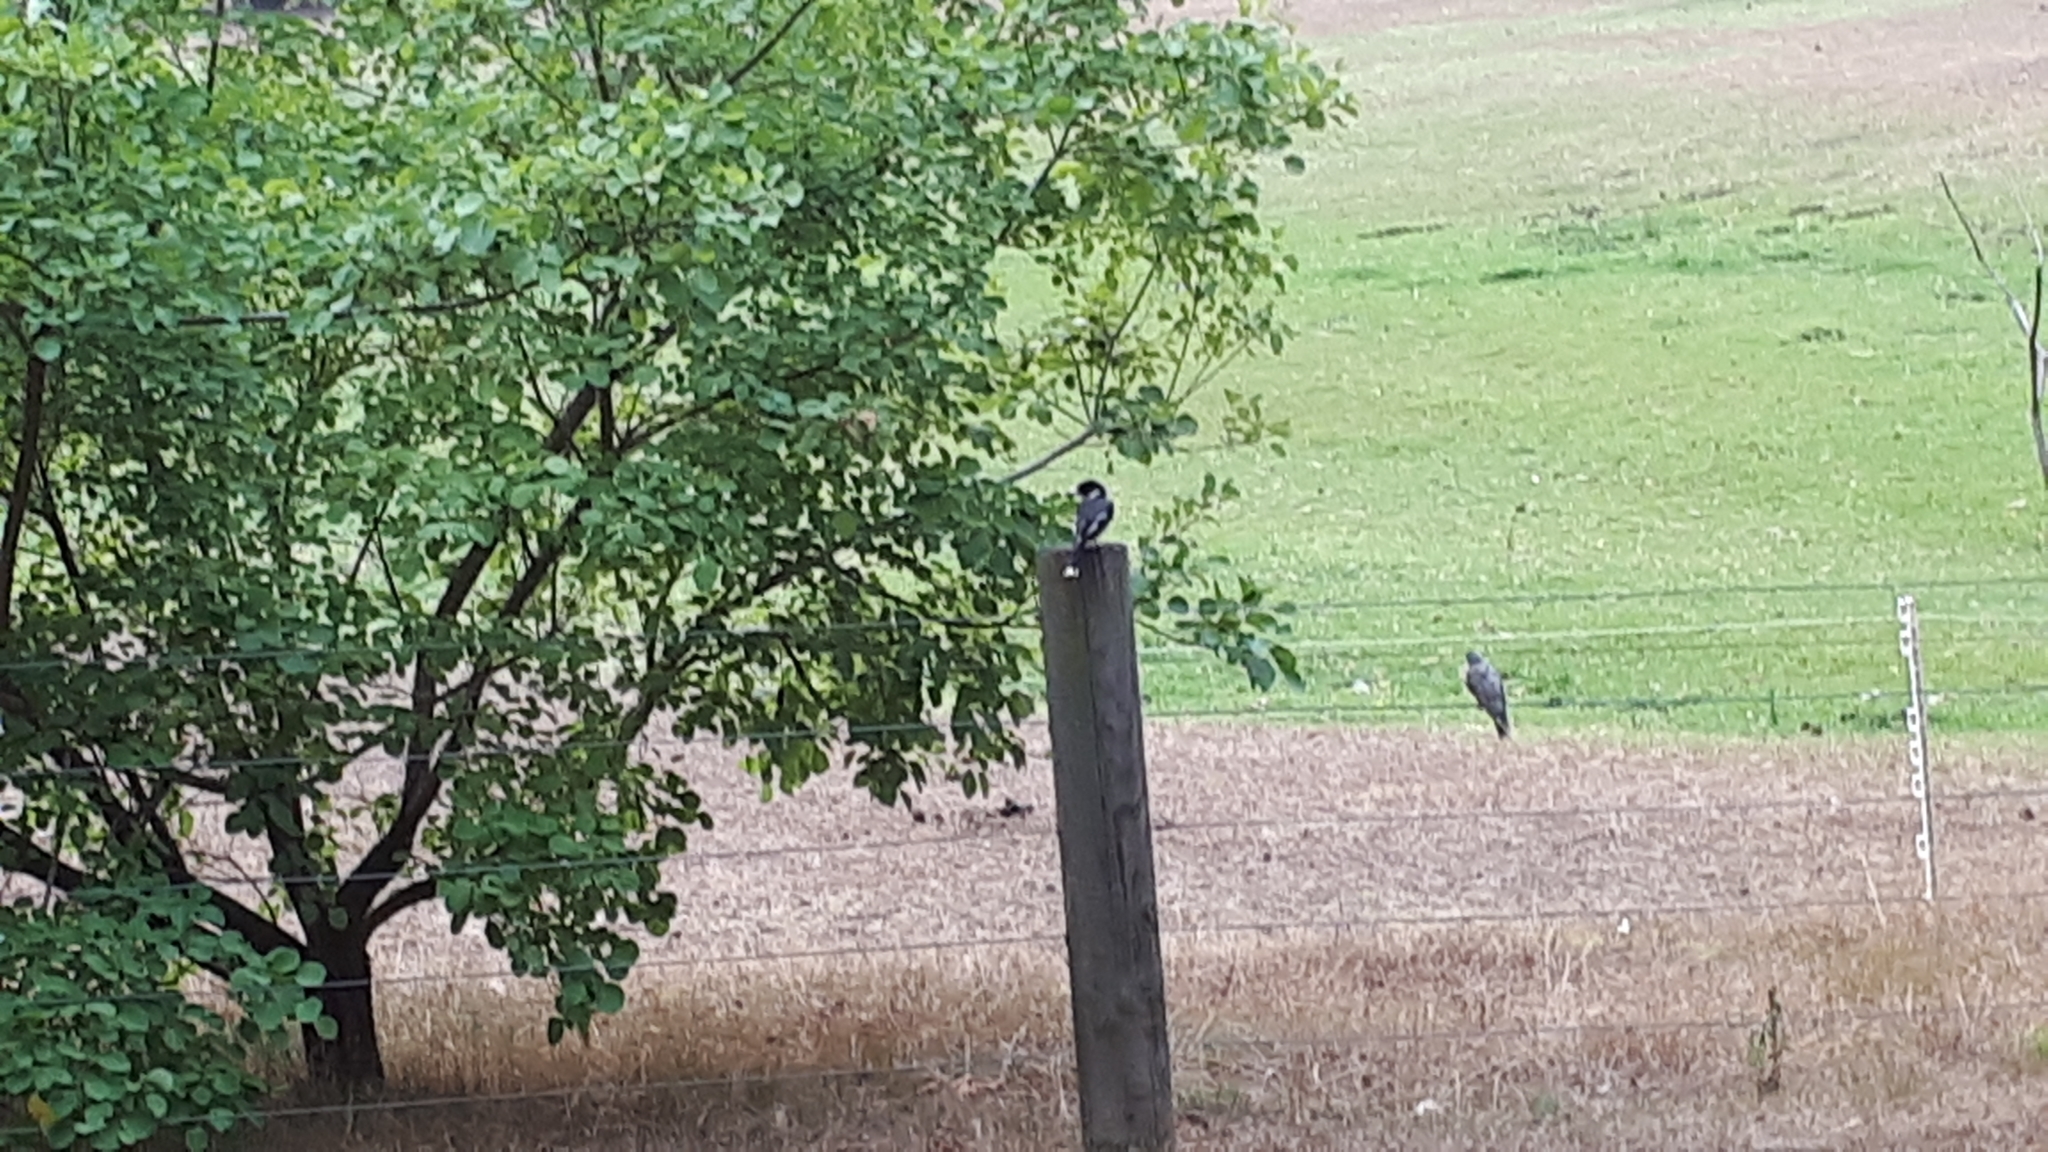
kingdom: Animalia
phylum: Chordata
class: Aves
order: Passeriformes
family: Cracticidae
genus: Cracticus
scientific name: Cracticus torquatus
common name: Grey butcherbird
